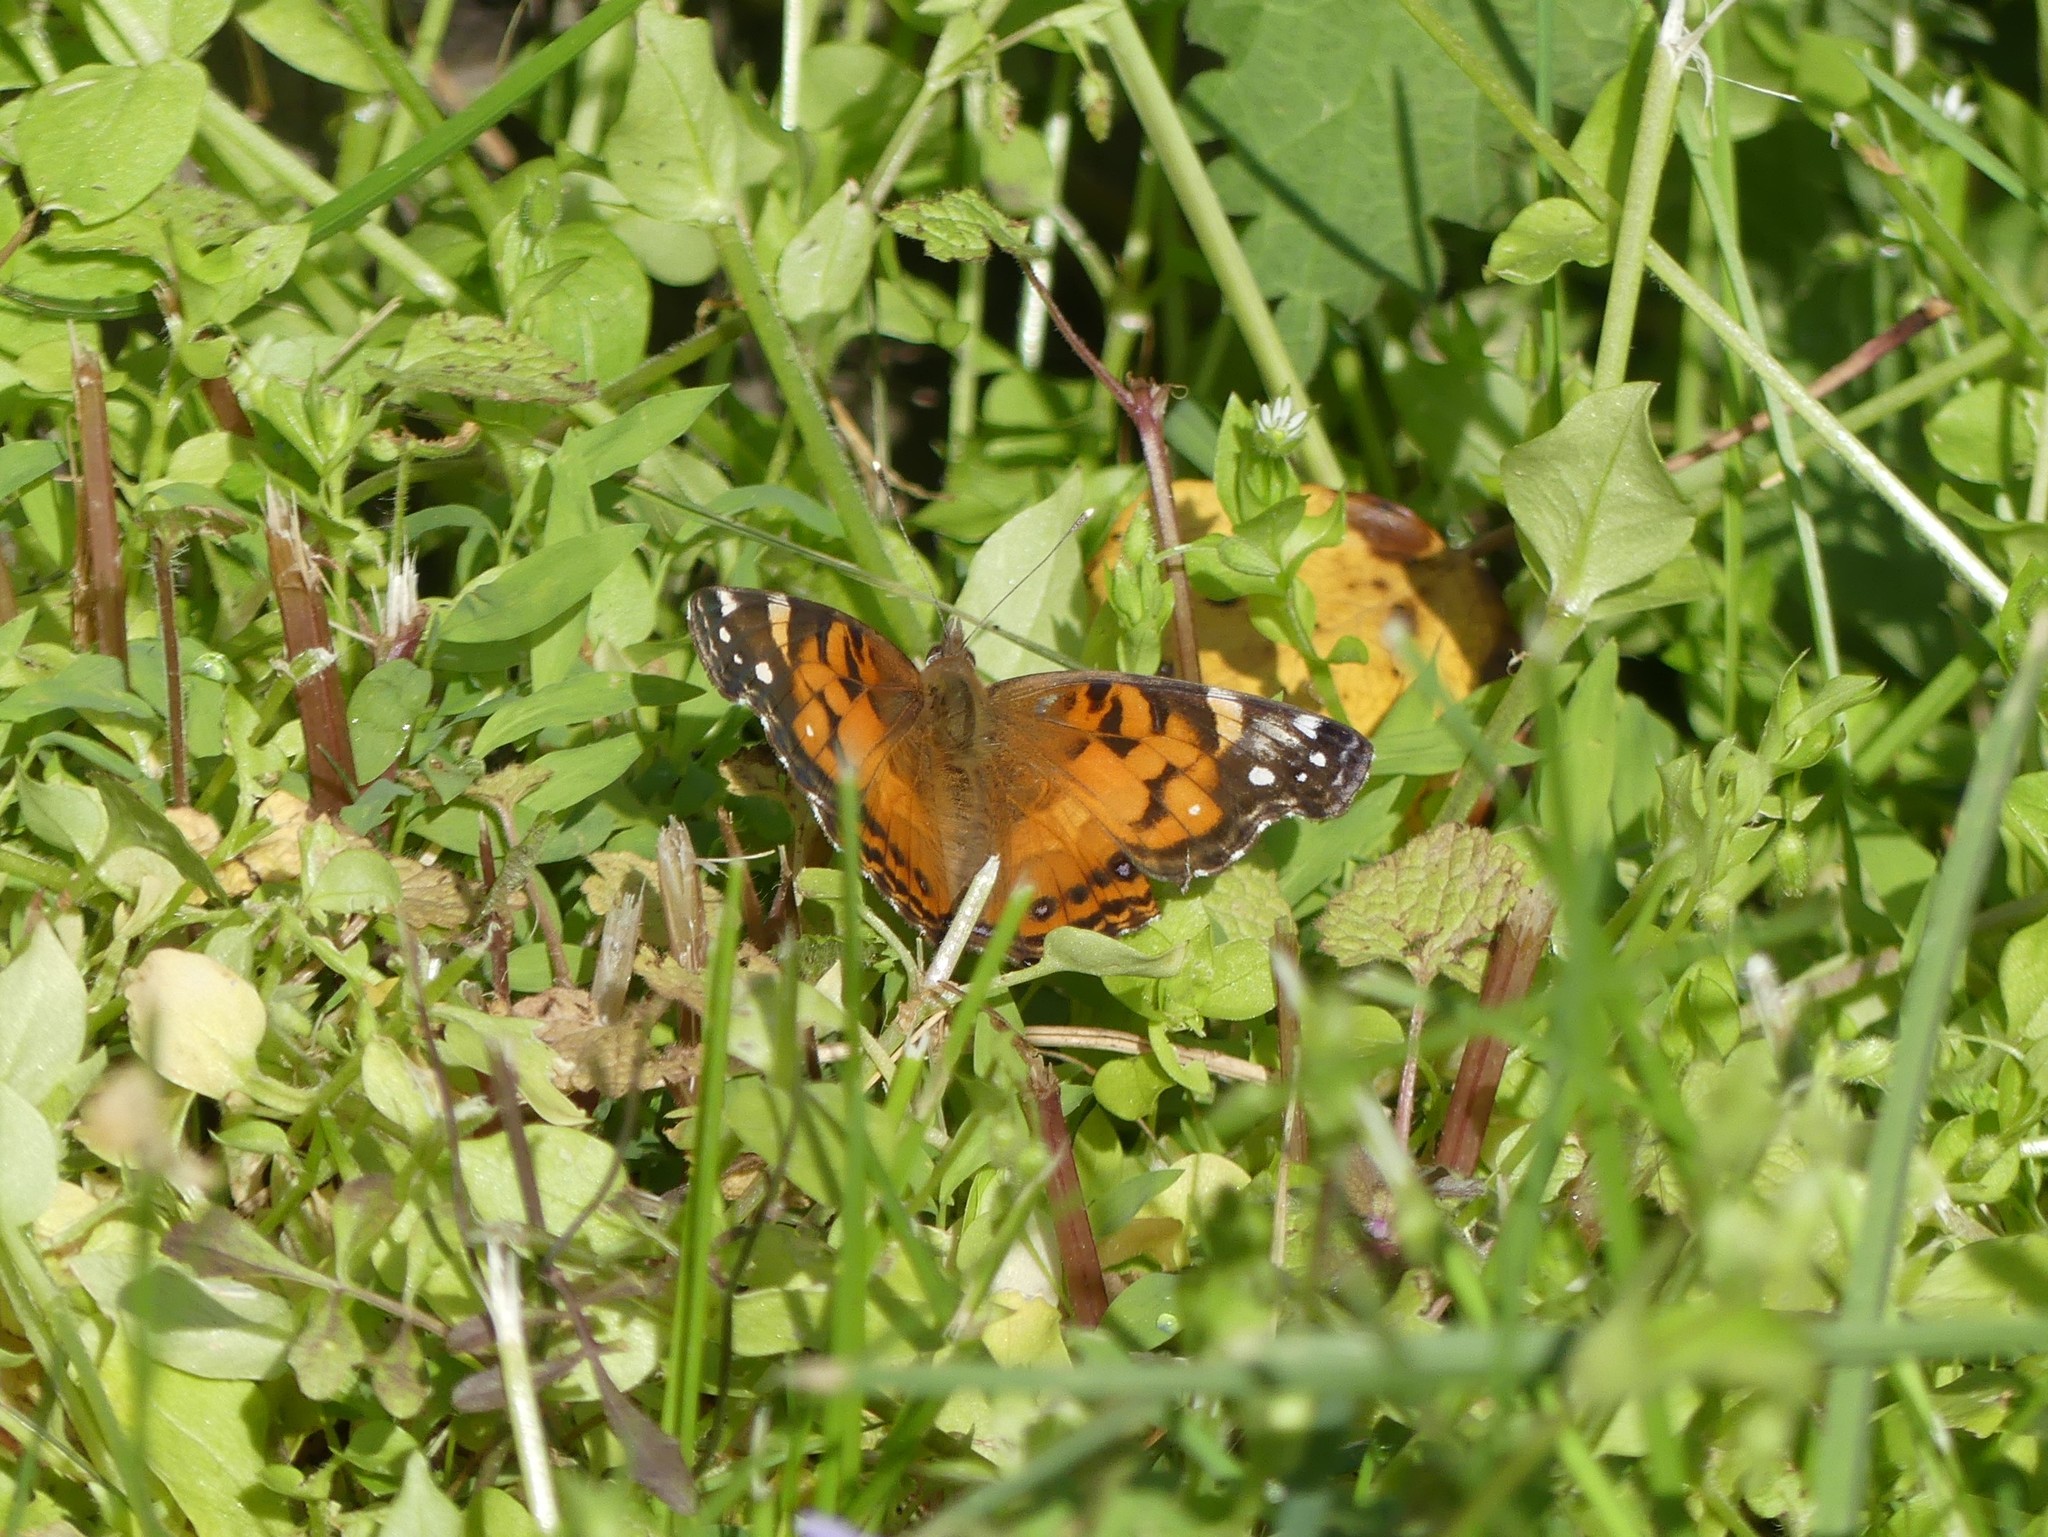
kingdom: Animalia
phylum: Arthropoda
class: Insecta
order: Lepidoptera
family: Nymphalidae
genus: Vanessa
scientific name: Vanessa virginiensis
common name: American lady
